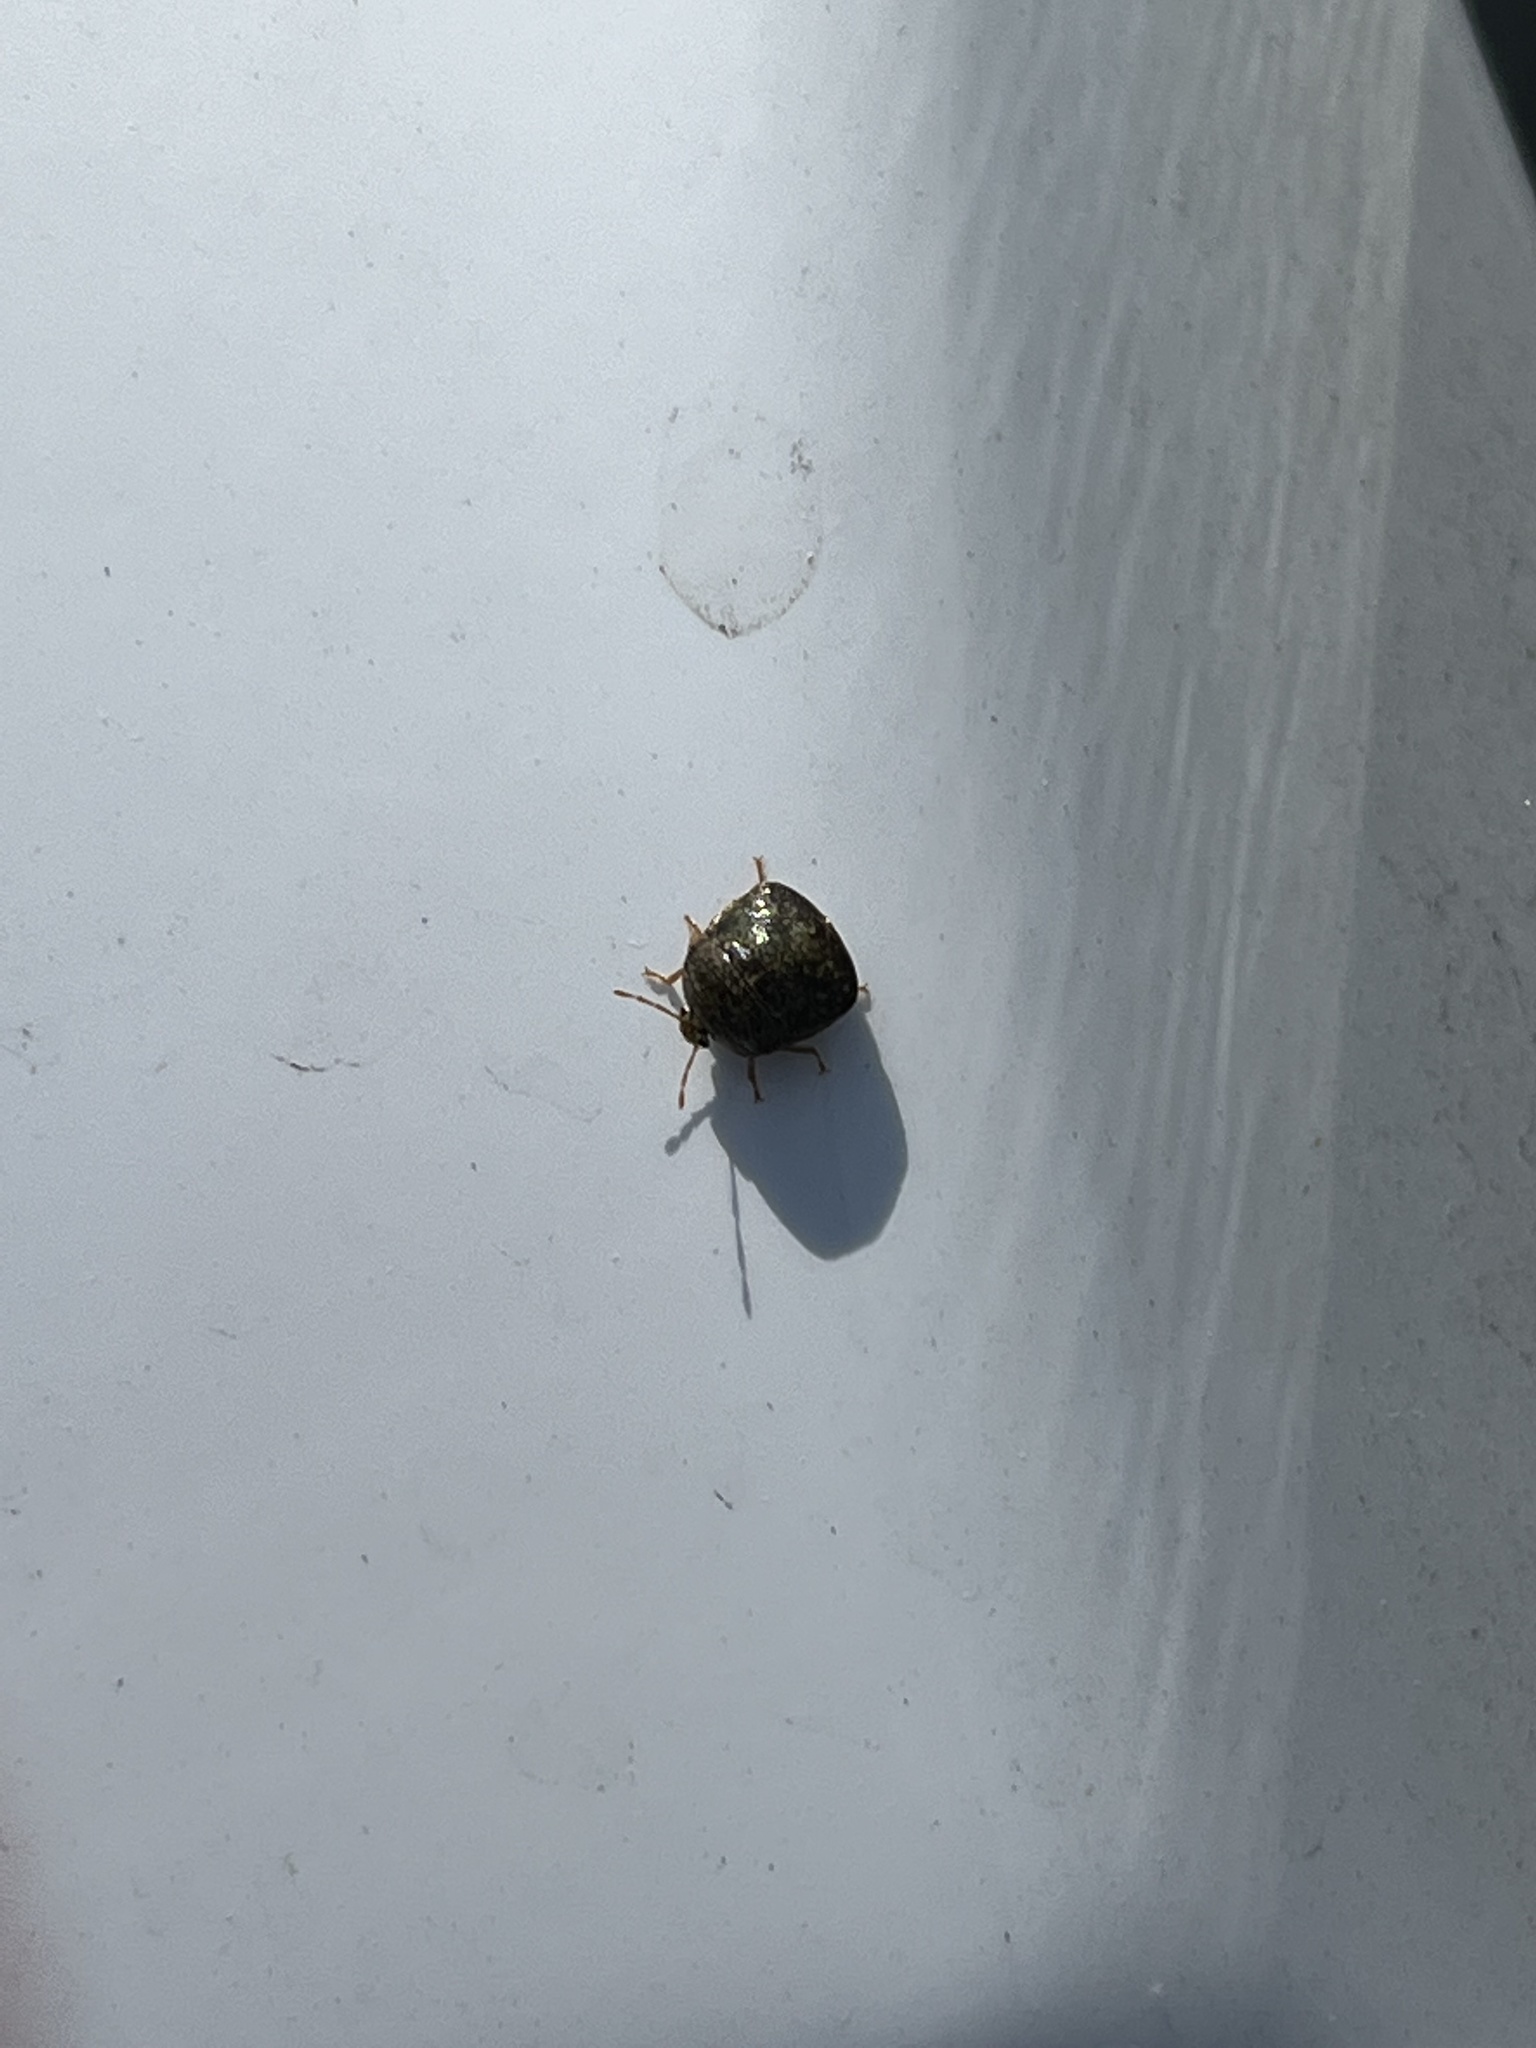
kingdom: Animalia
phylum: Arthropoda
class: Insecta
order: Hemiptera
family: Plataspidae
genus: Megacopta
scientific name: Megacopta cribraria
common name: Bean plataspid
